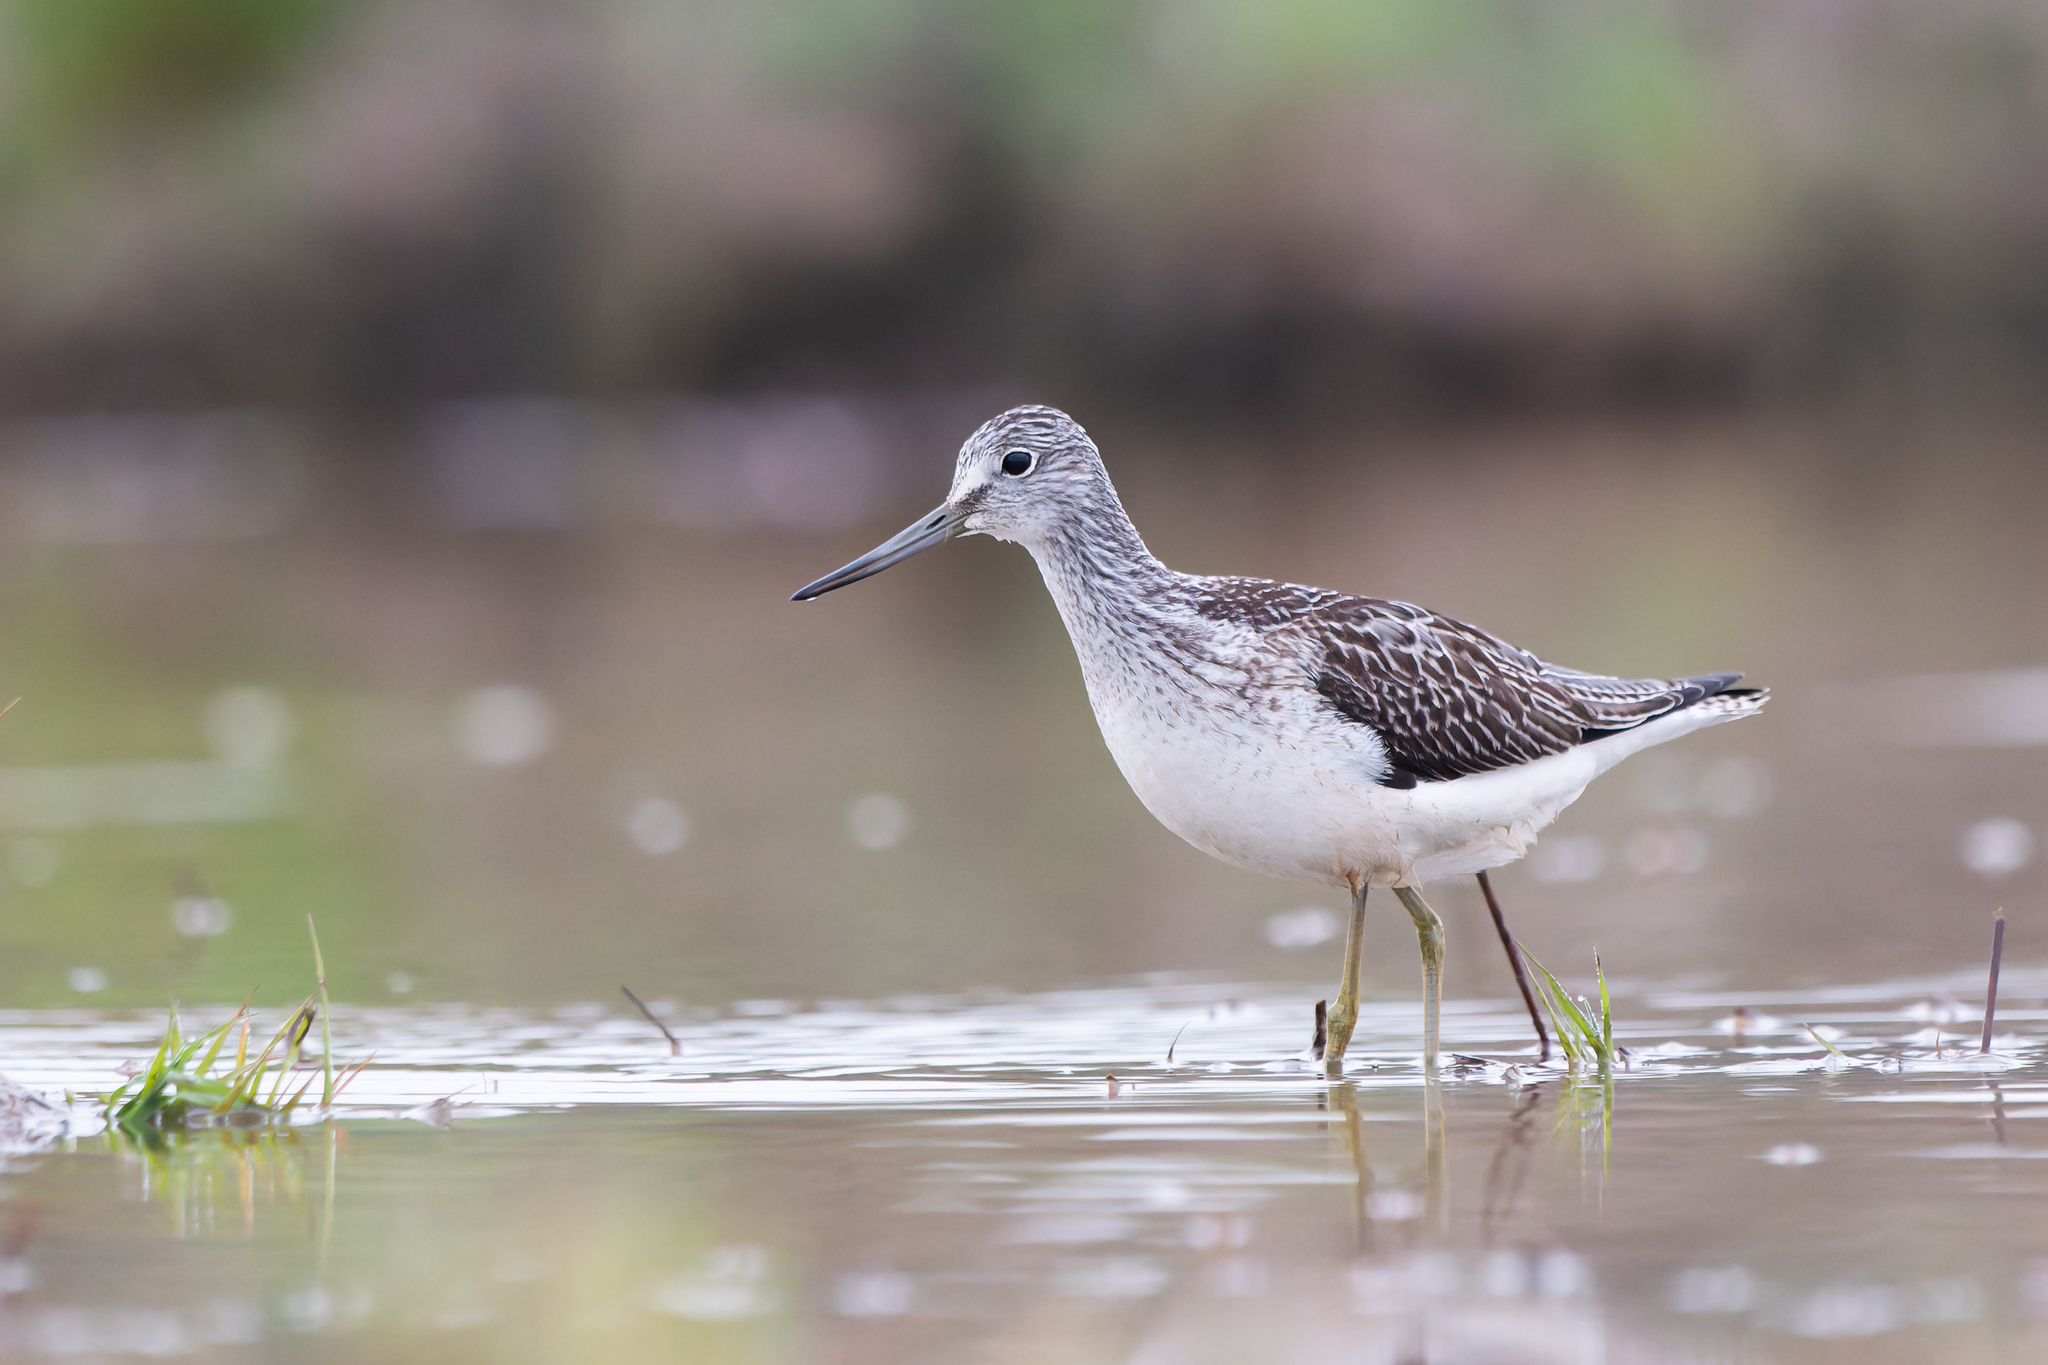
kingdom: Animalia
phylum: Chordata
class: Aves
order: Charadriiformes
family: Scolopacidae
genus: Tringa
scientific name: Tringa nebularia
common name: Common greenshank
